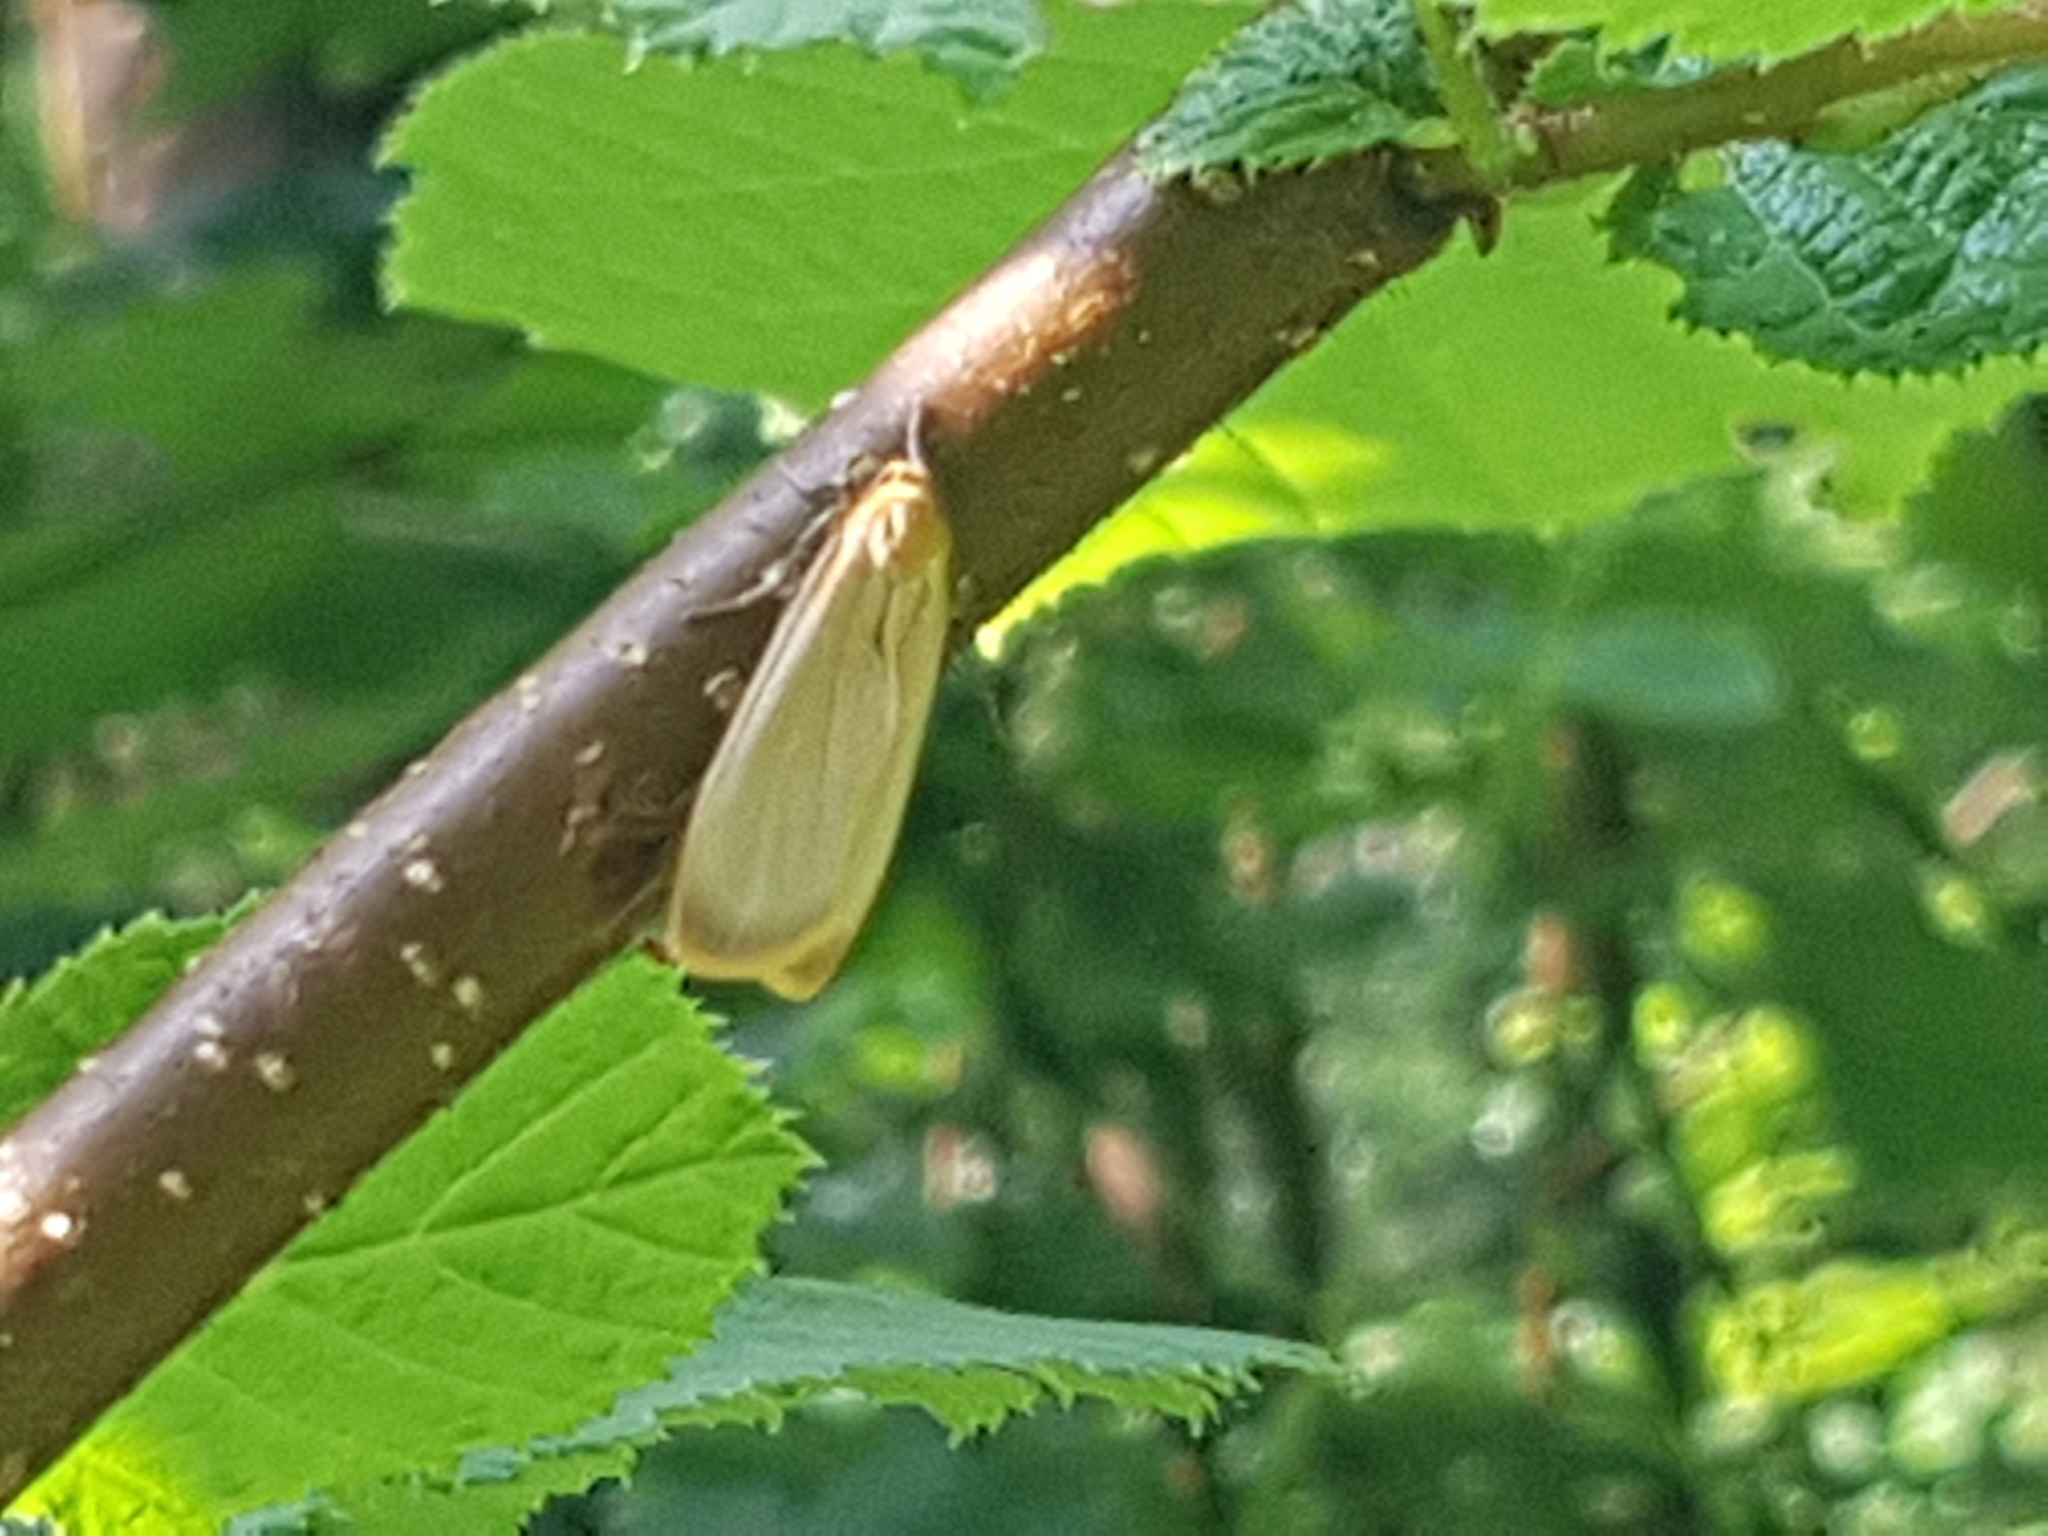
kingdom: Animalia
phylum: Arthropoda
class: Insecta
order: Lepidoptera
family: Erebidae
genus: Katha
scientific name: Katha depressa
